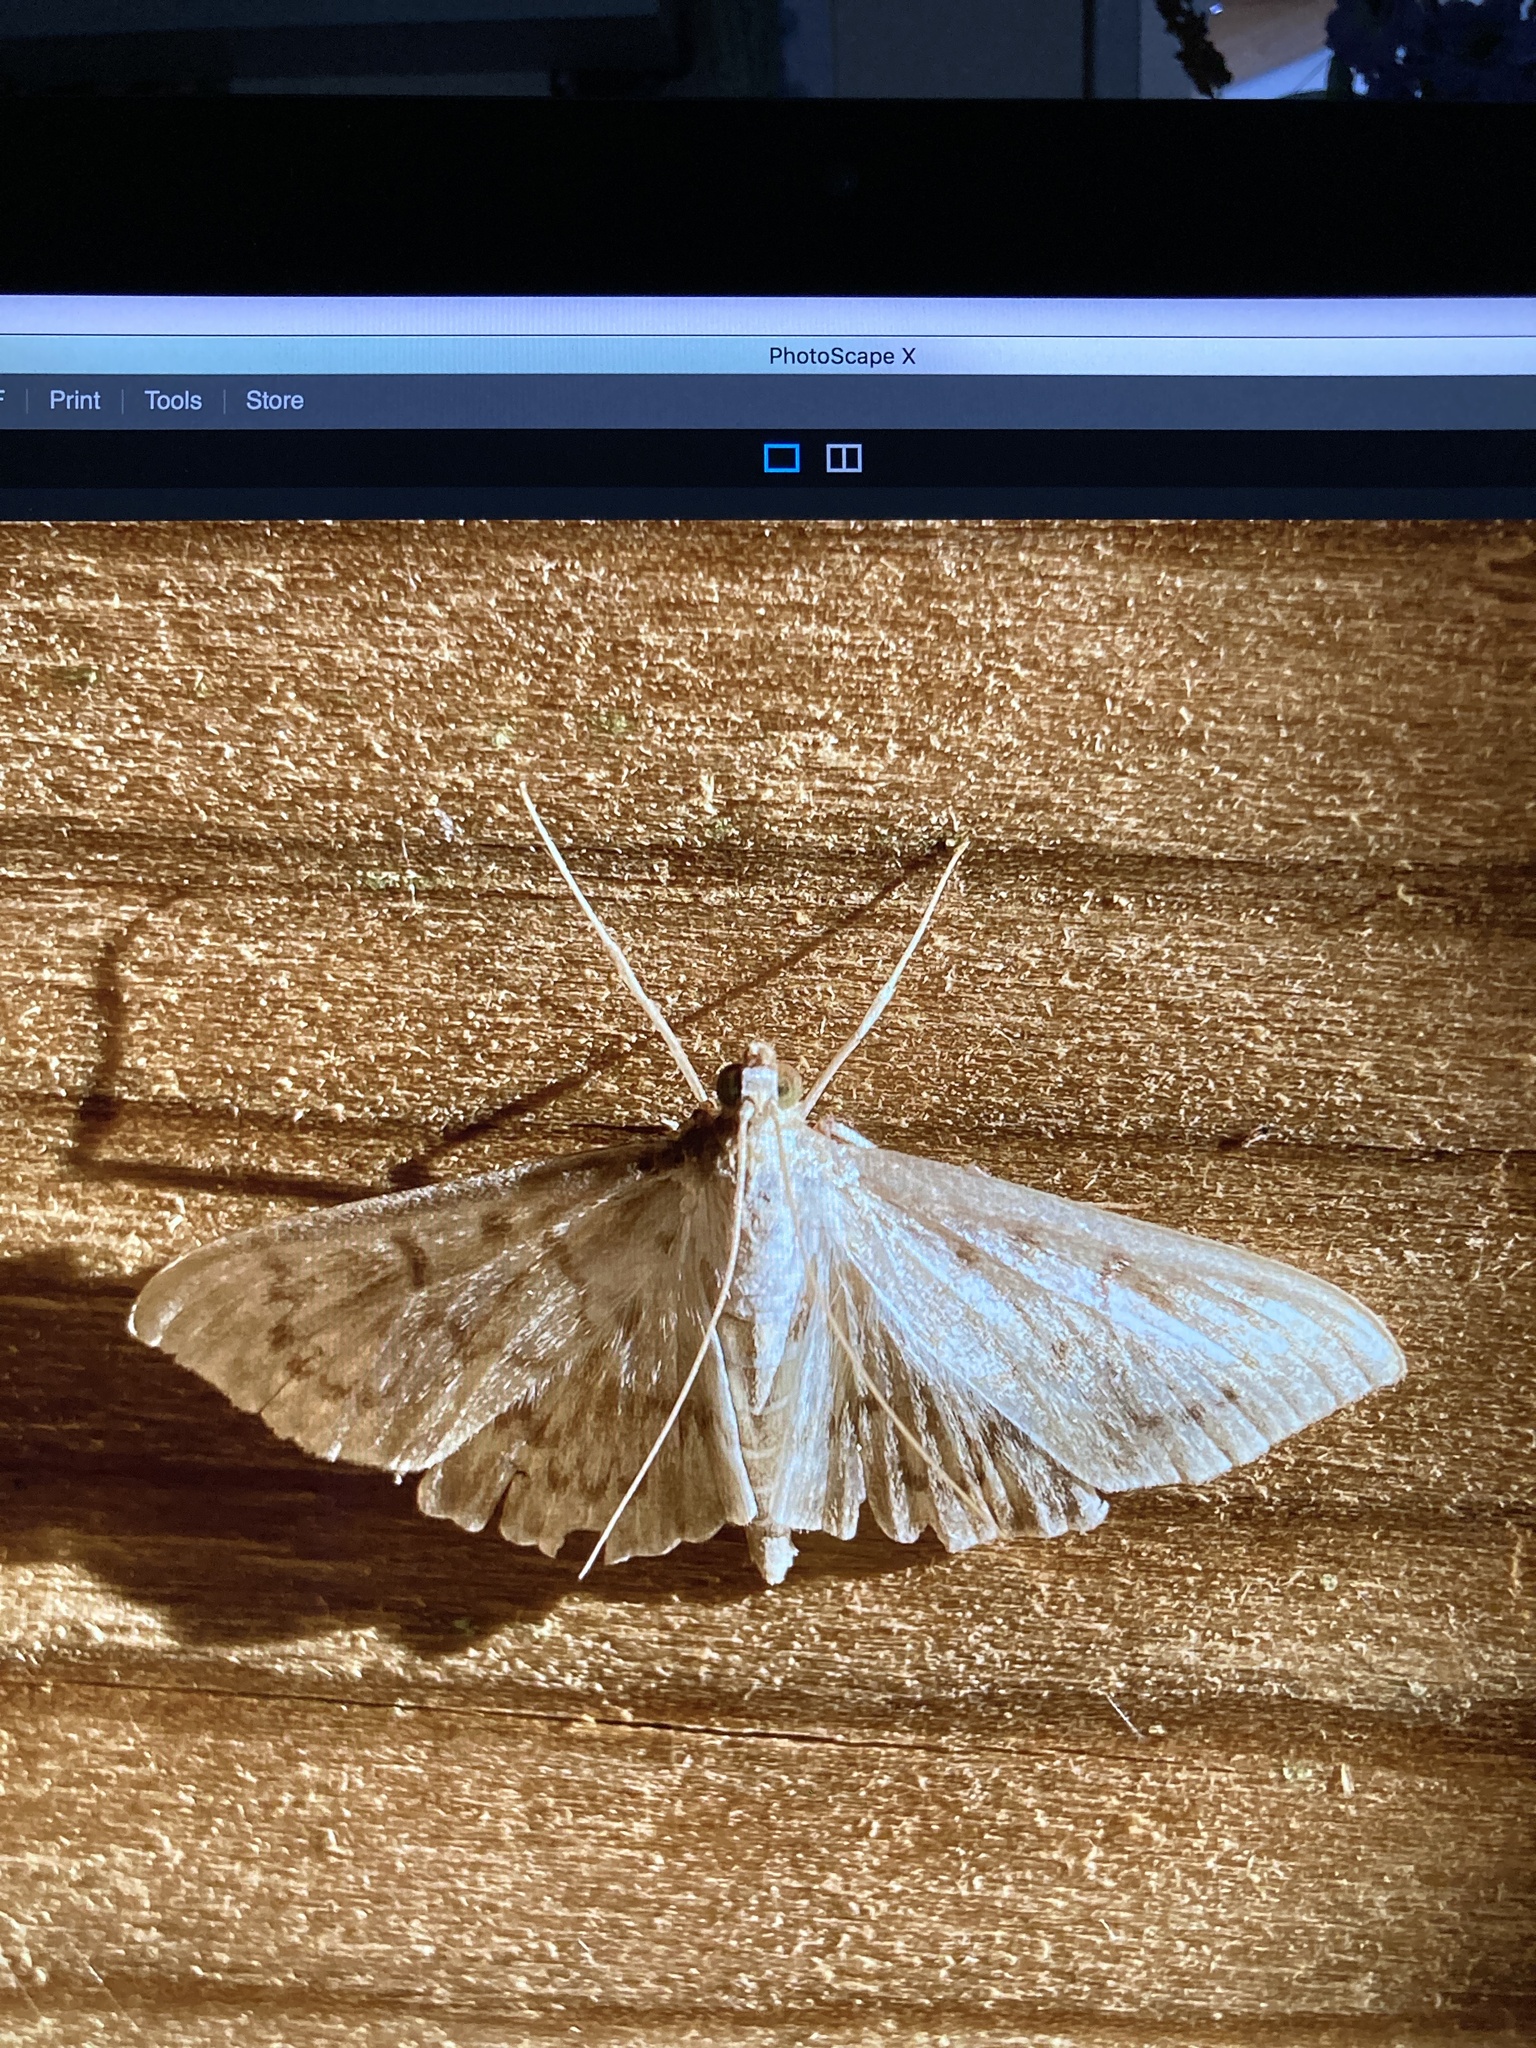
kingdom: Animalia
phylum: Arthropoda
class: Insecta
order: Lepidoptera
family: Crambidae
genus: Patania
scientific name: Patania ruralis
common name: Mother of pearl
